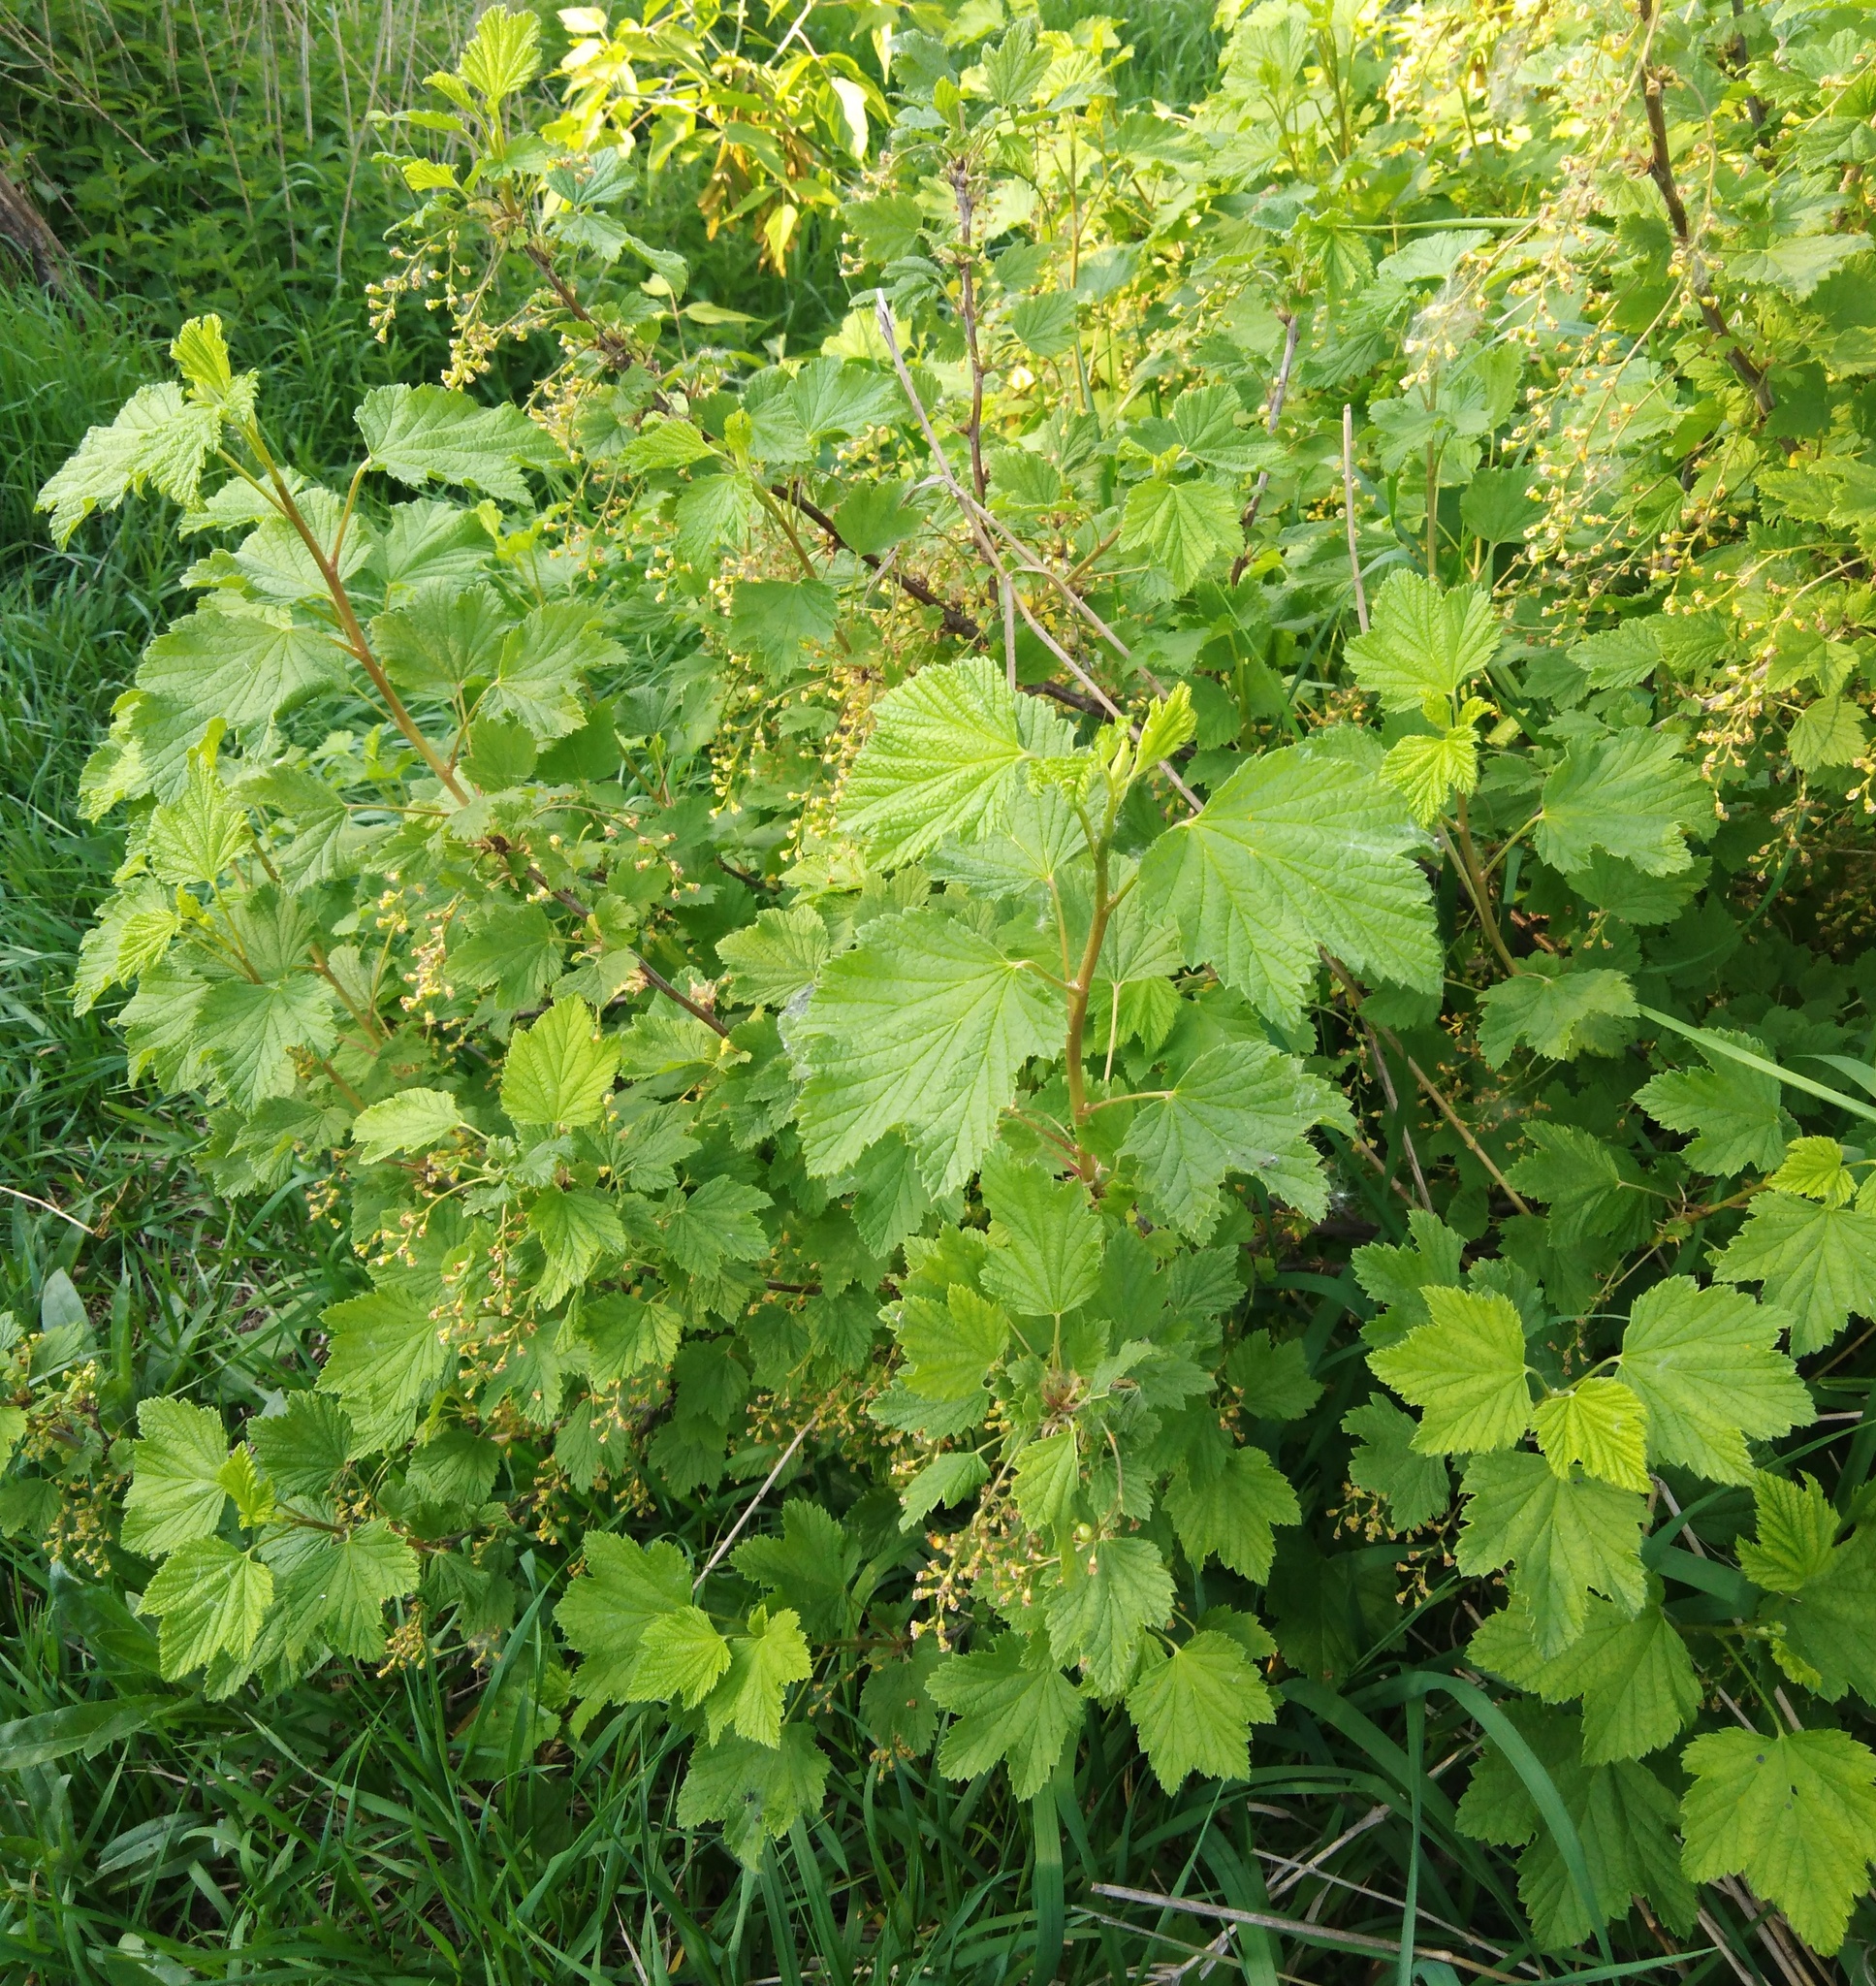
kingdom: Plantae
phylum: Tracheophyta
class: Magnoliopsida
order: Saxifragales
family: Grossulariaceae
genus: Ribes
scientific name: Ribes nigrum
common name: Black currant
